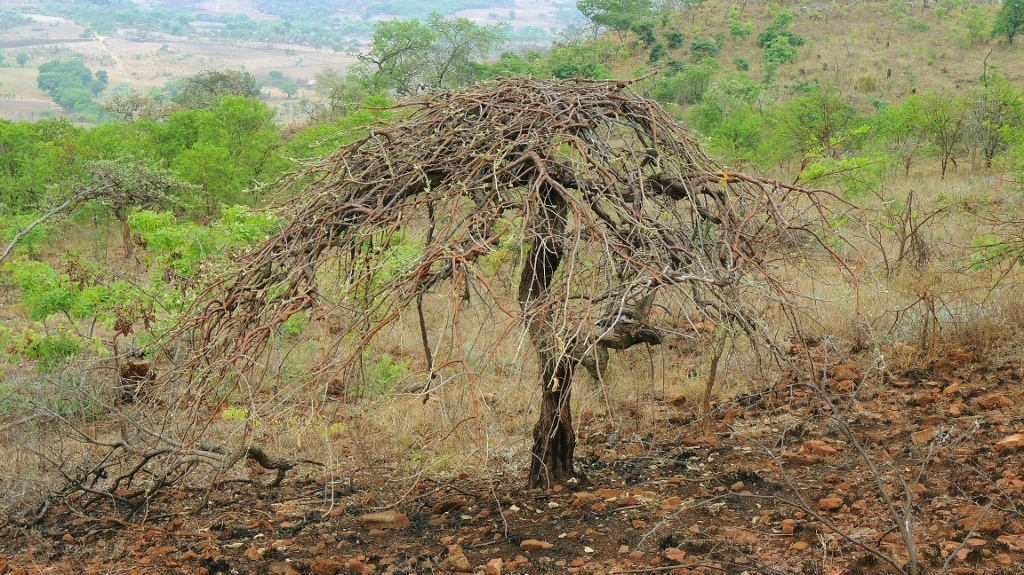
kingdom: Plantae
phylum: Tracheophyta
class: Magnoliopsida
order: Gentianales
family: Rubiaceae
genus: Vangueria
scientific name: Vangueria vestita
